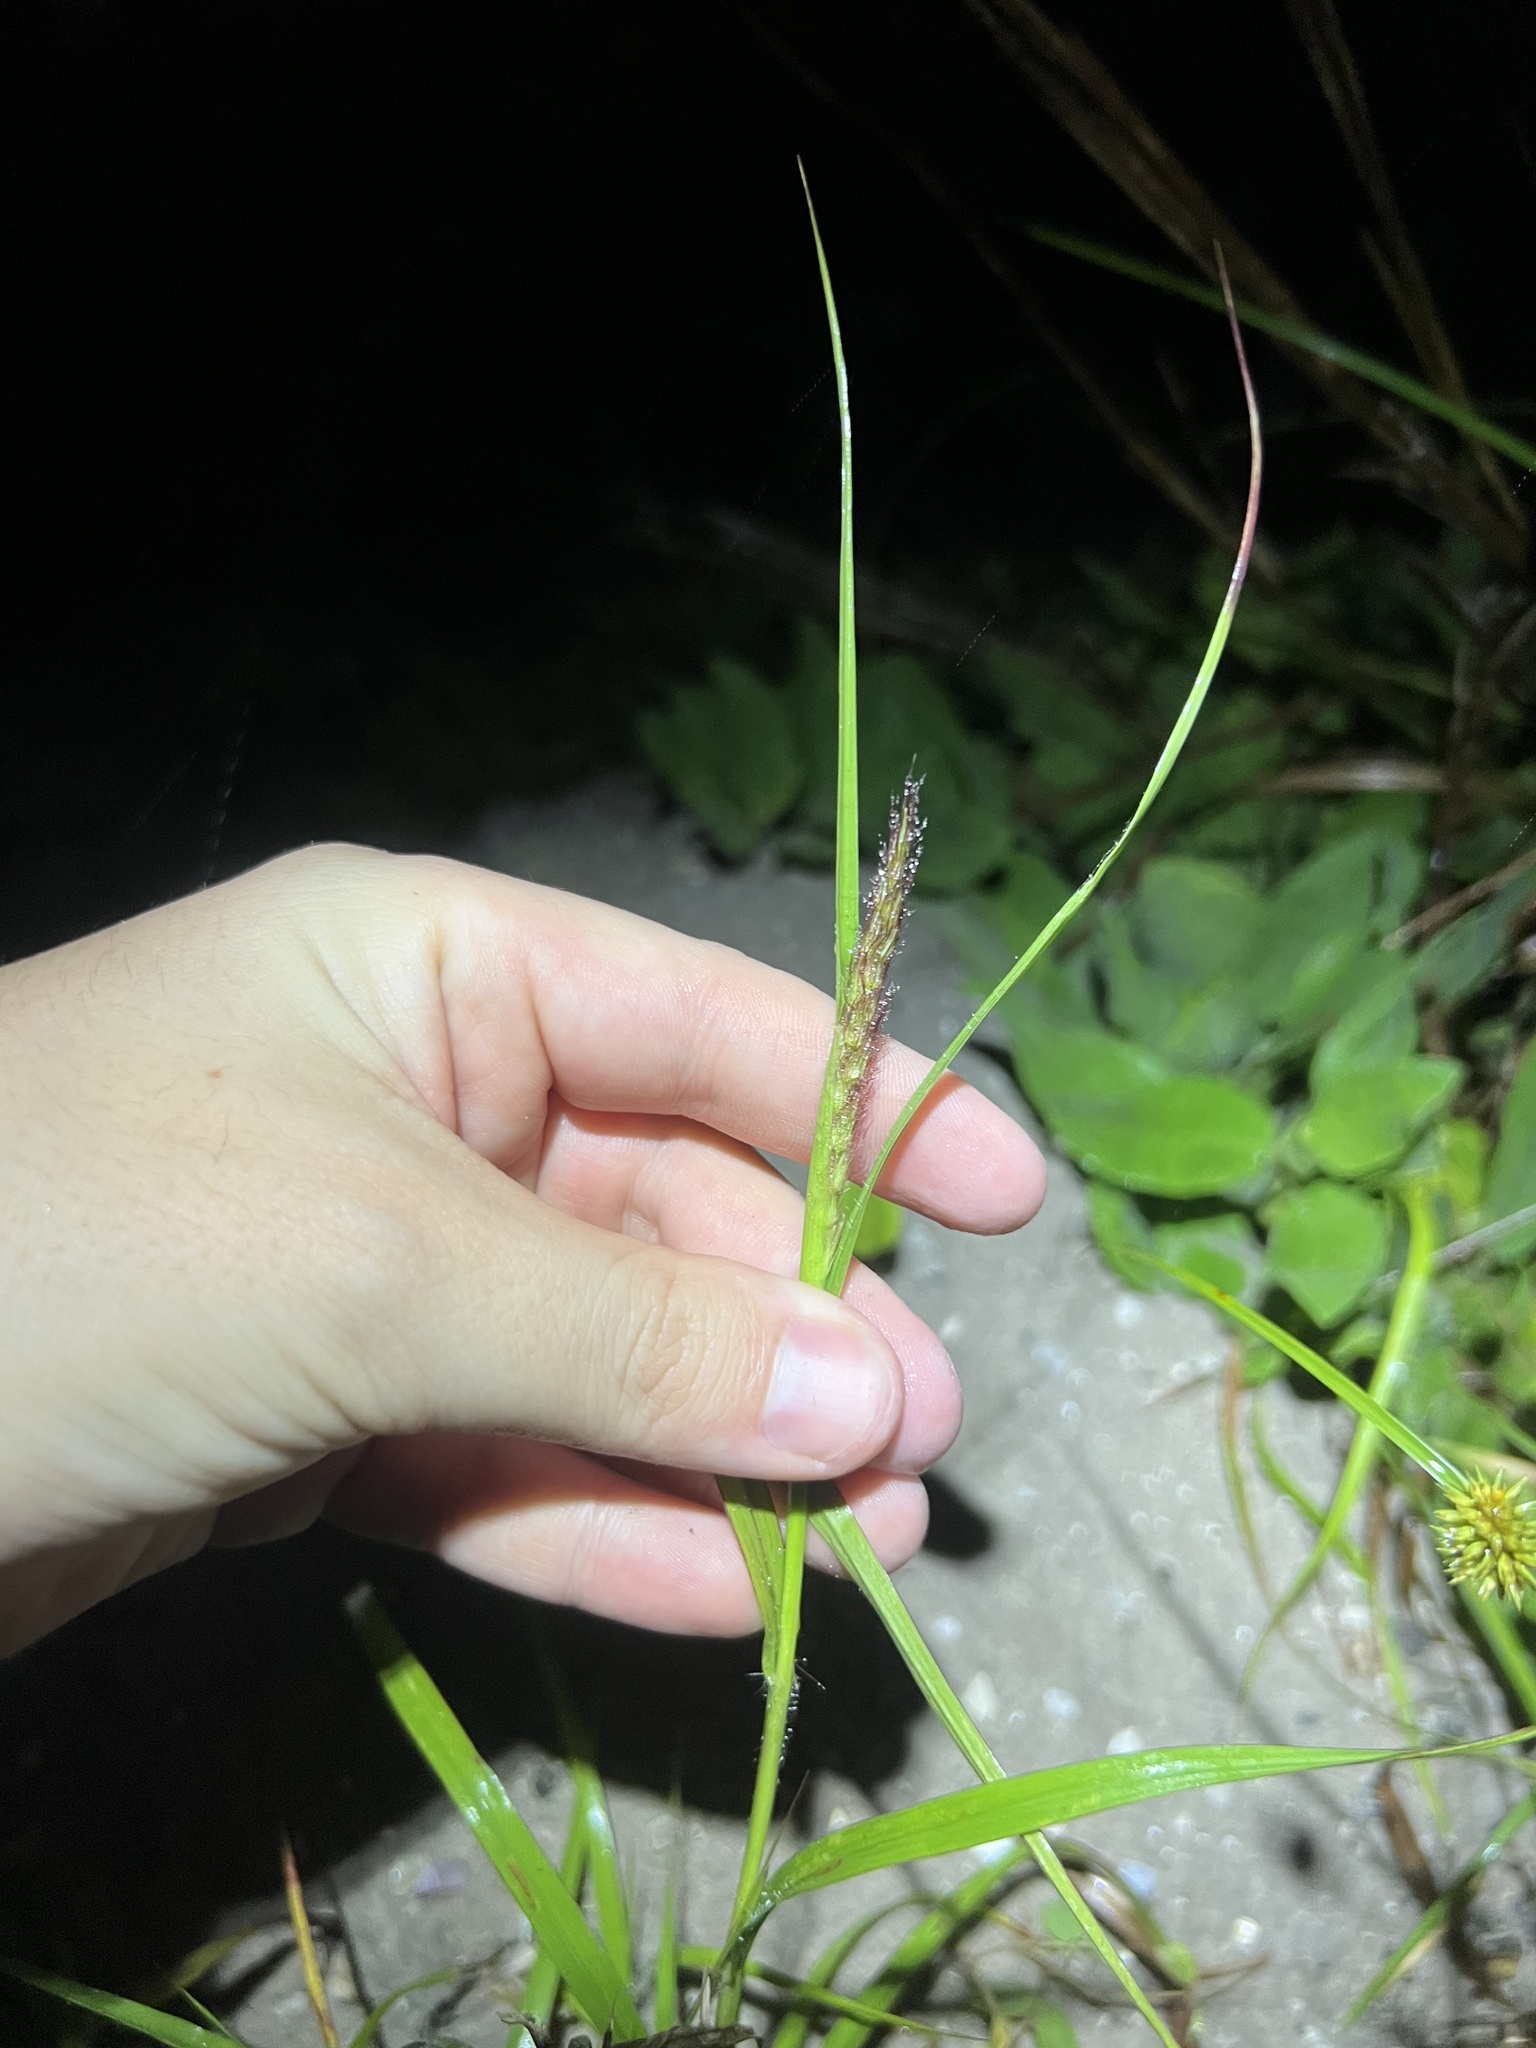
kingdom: Plantae
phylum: Tracheophyta
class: Liliopsida
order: Poales
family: Poaceae
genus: Cenchrus
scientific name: Cenchrus ciliaris
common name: Buffelgrass
